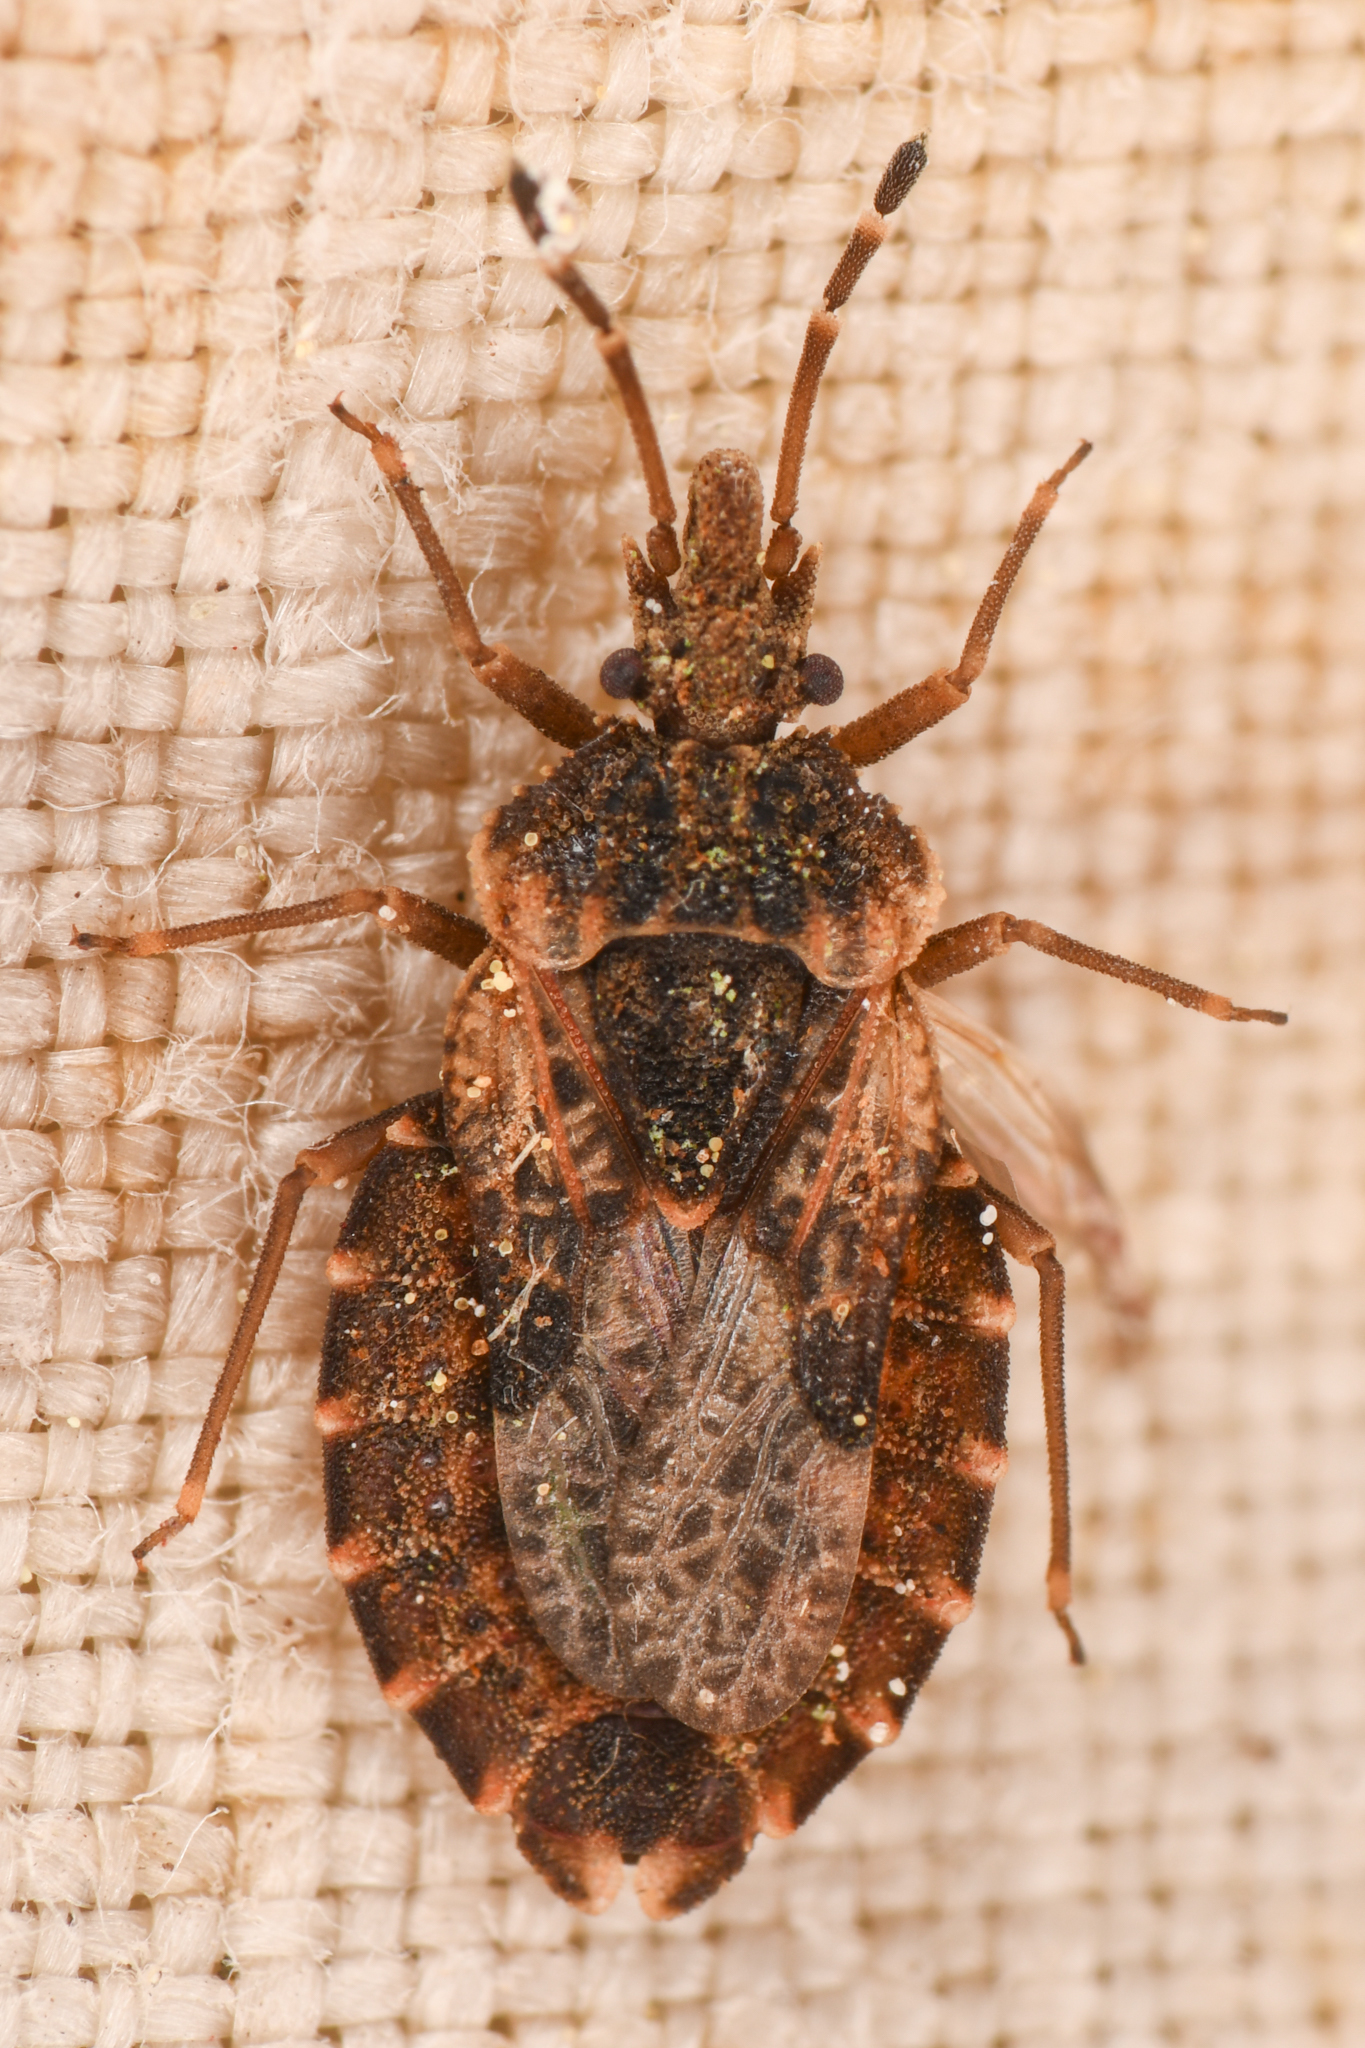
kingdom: Animalia
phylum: Arthropoda
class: Insecta
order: Hemiptera
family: Aradidae
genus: Aradus
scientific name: Aradus proboscideus
